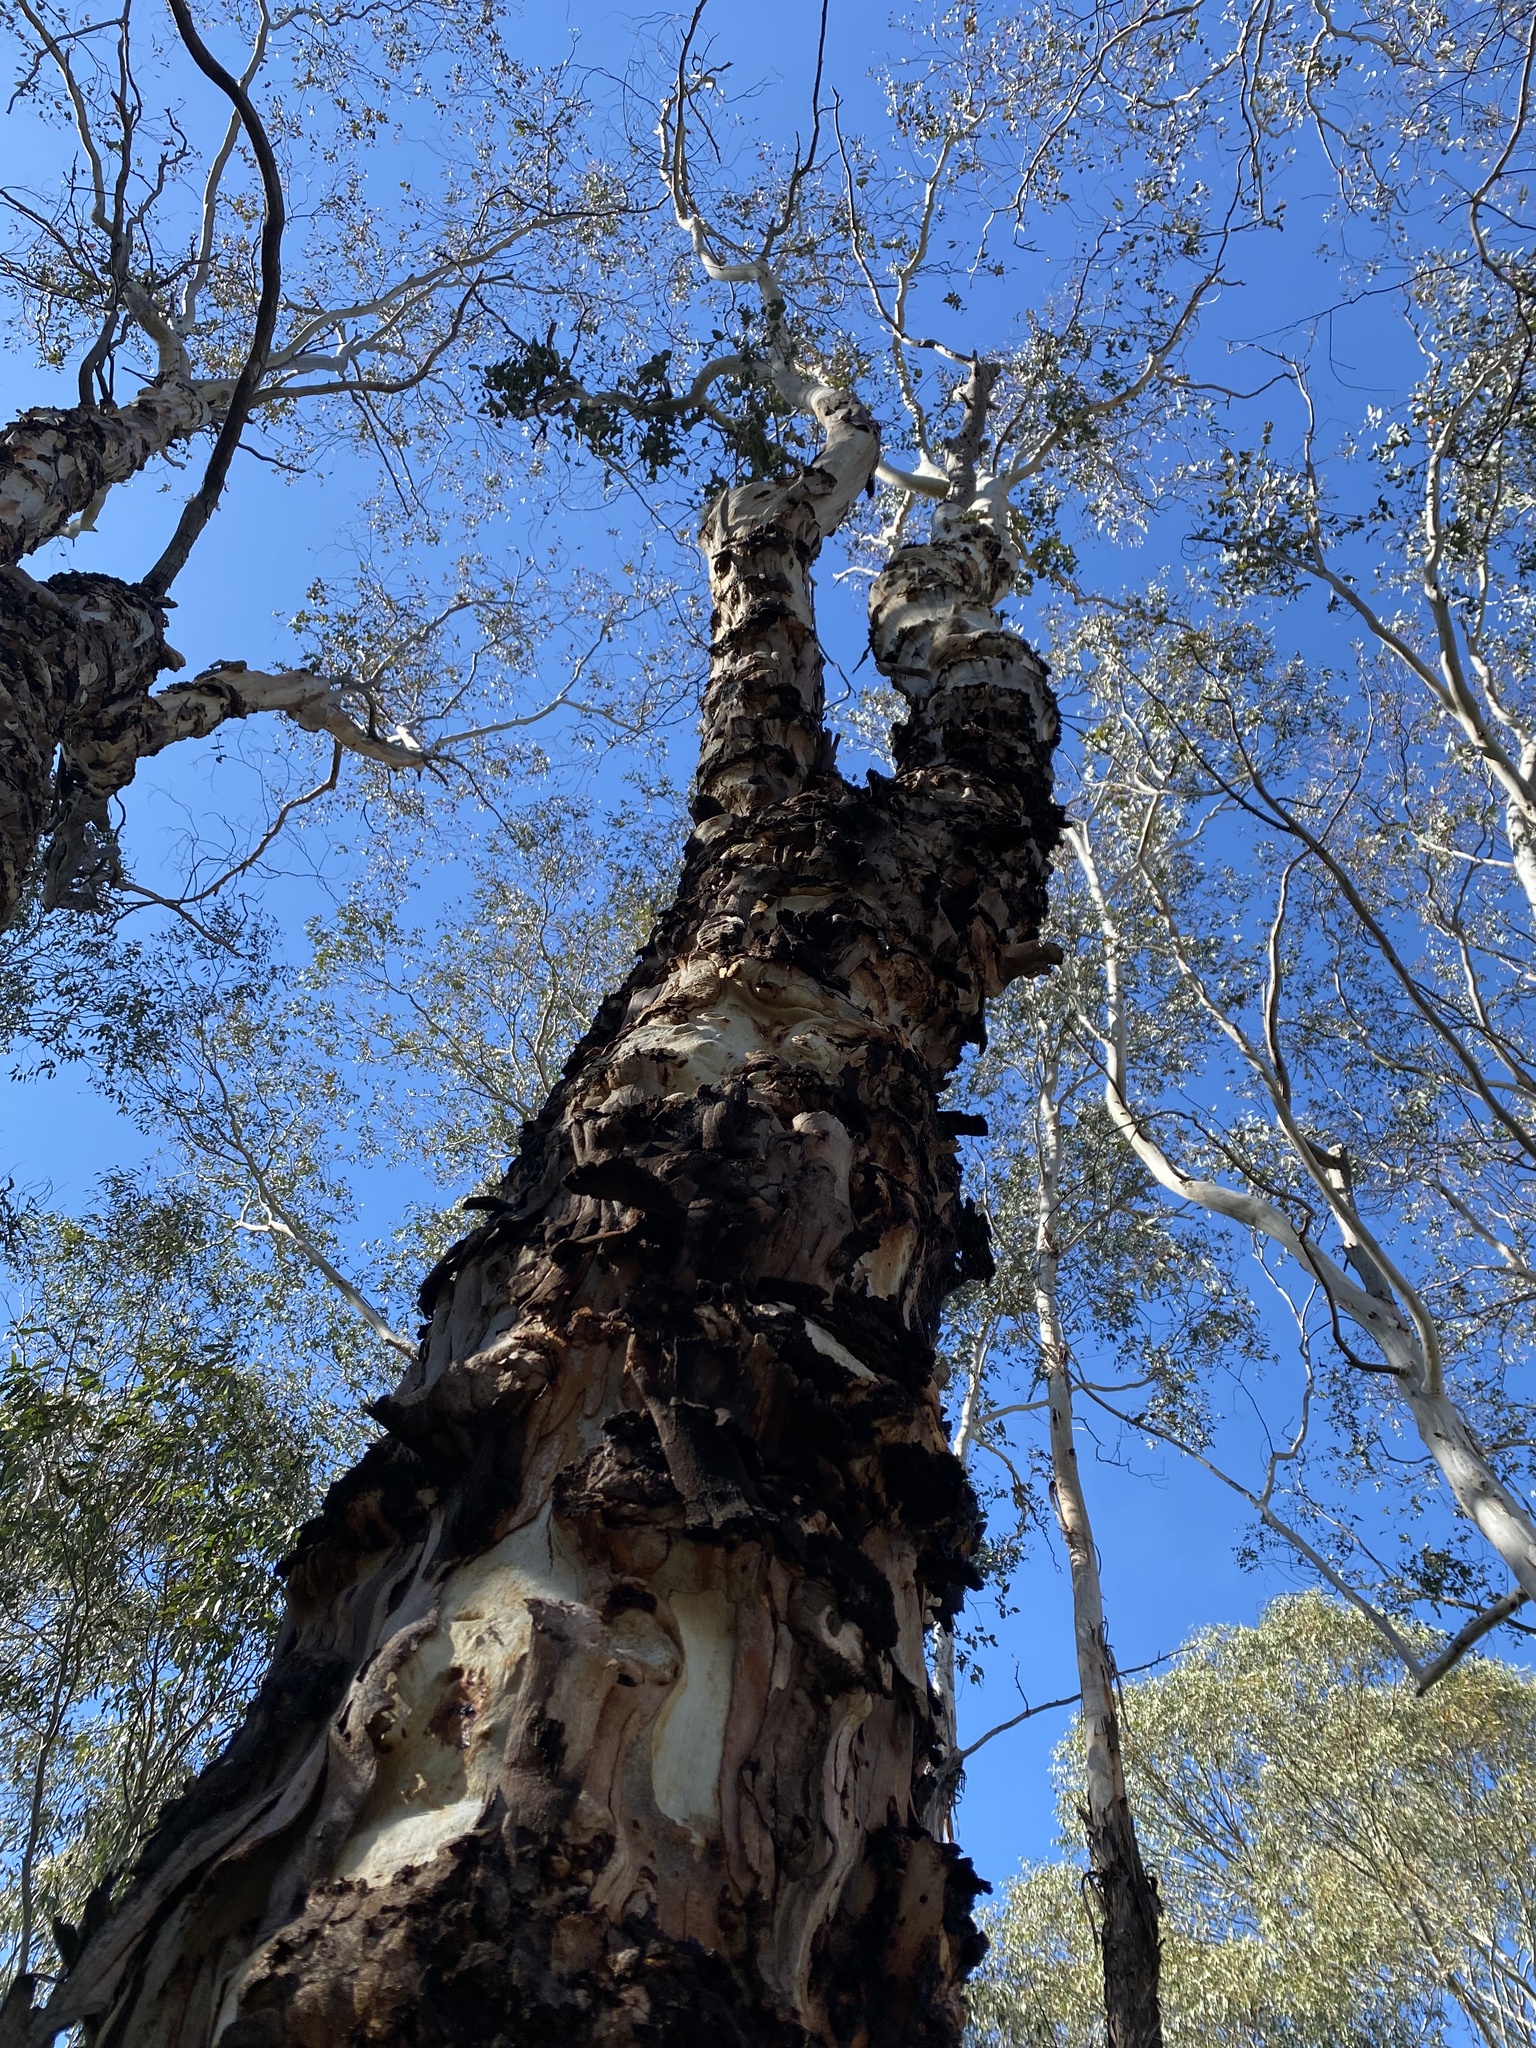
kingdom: Plantae
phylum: Tracheophyta
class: Magnoliopsida
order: Myrtales
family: Myrtaceae
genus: Eucalyptus
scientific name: Eucalyptus
